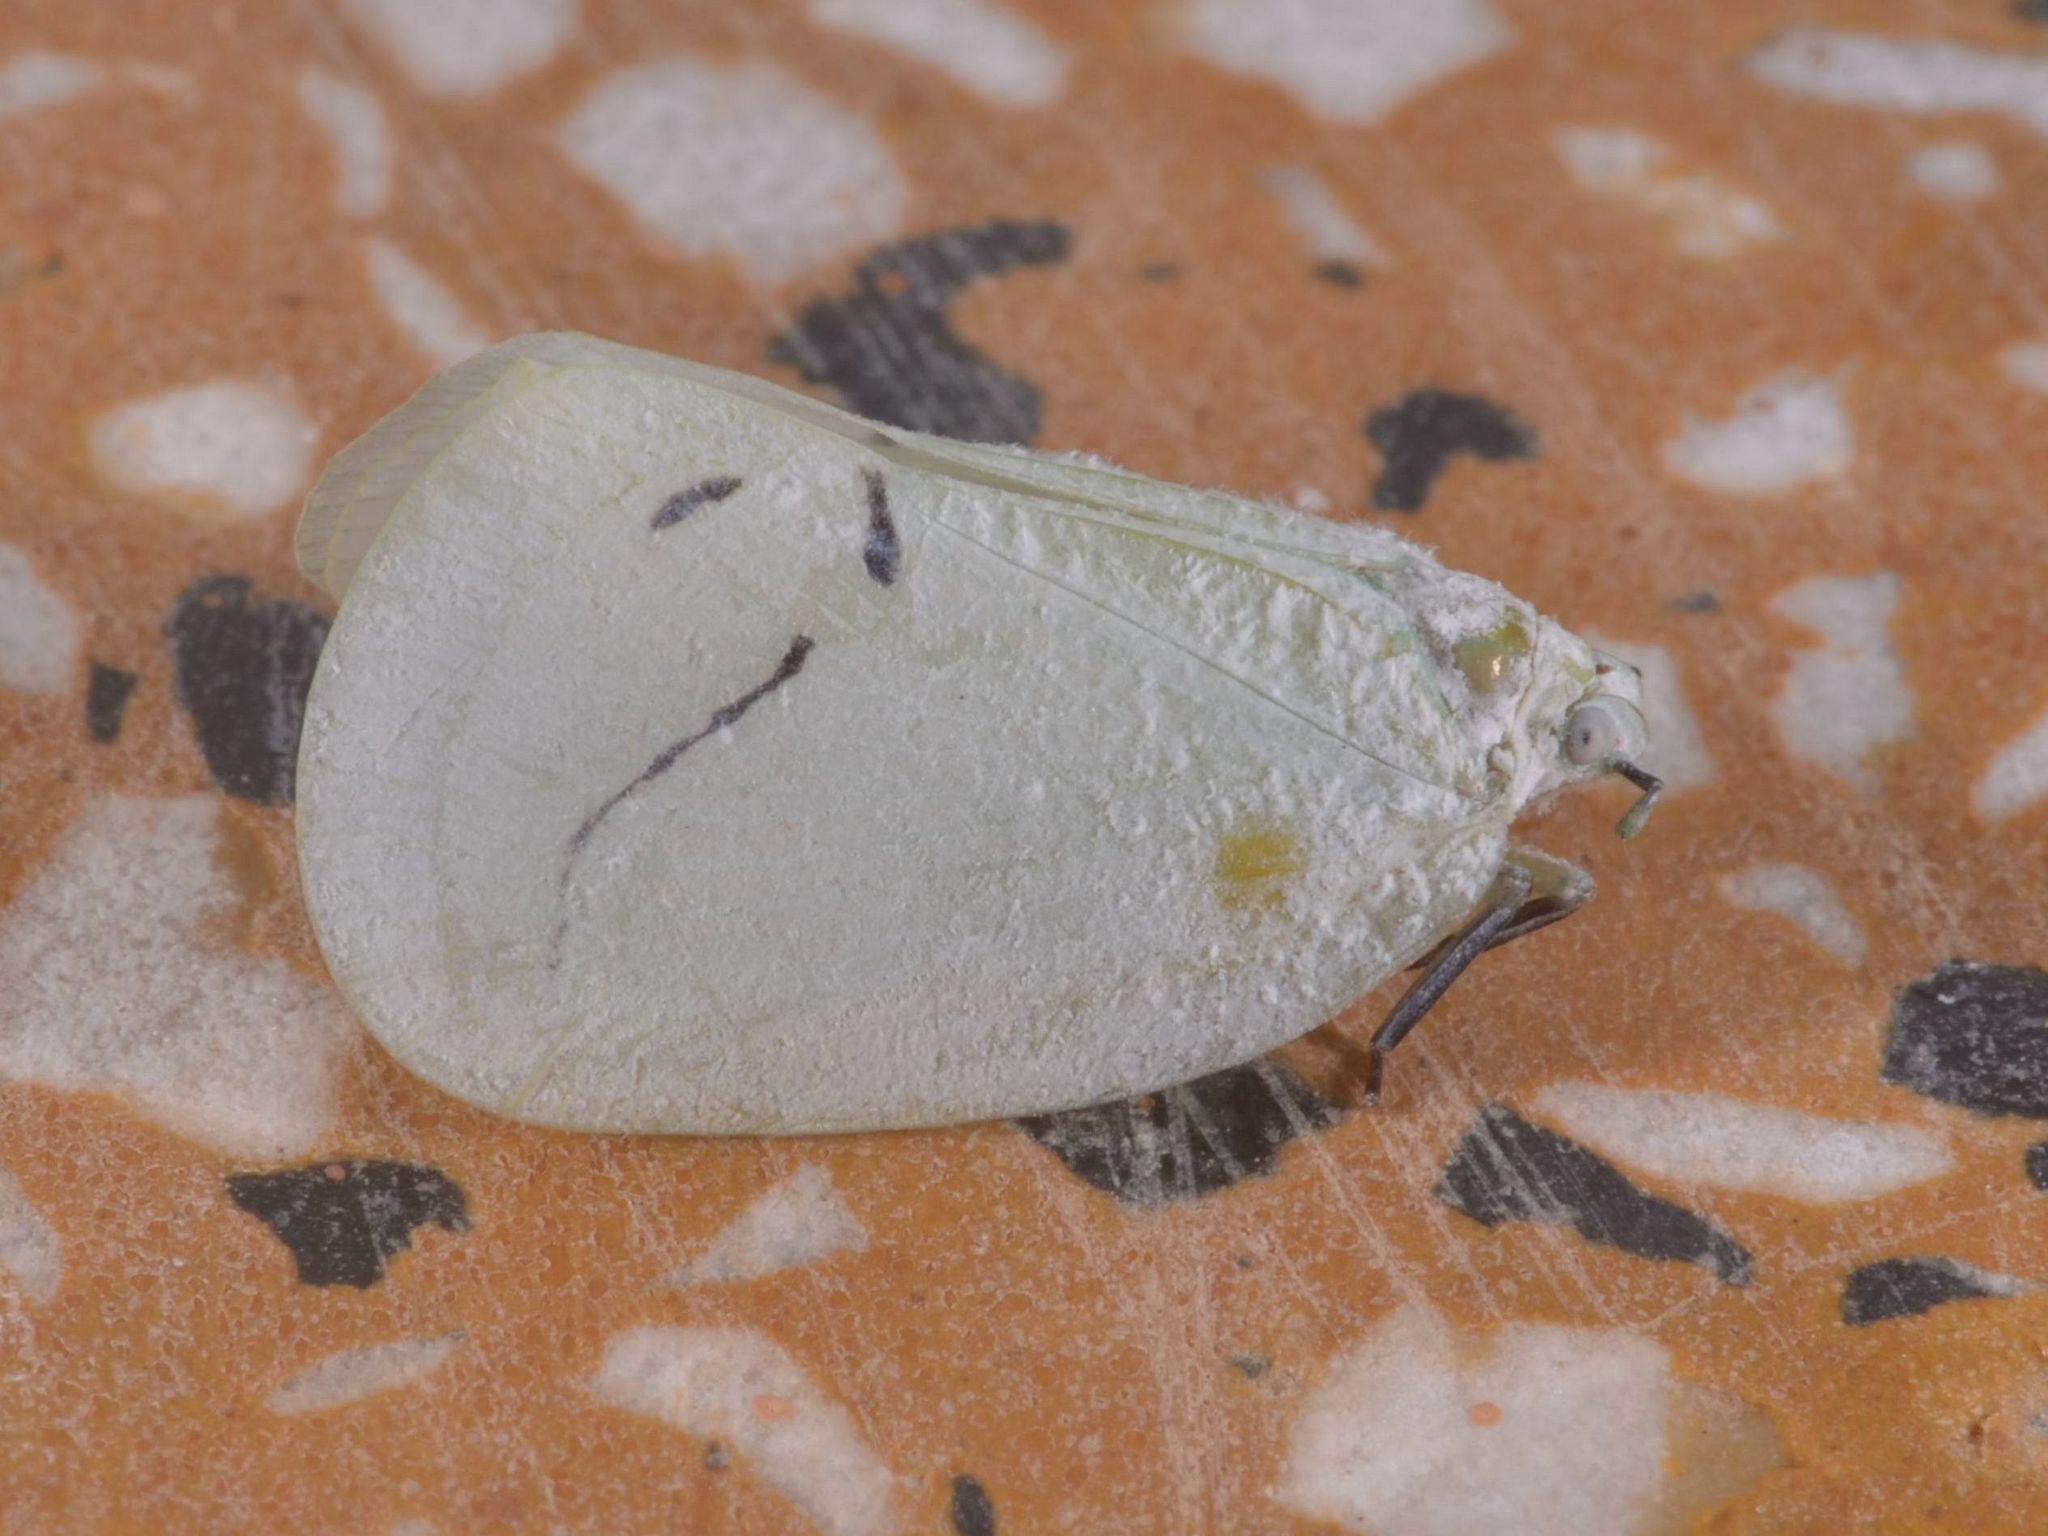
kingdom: Animalia
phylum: Arthropoda
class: Insecta
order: Hemiptera
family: Flatidae
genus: Cerynia
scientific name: Cerynia maria
